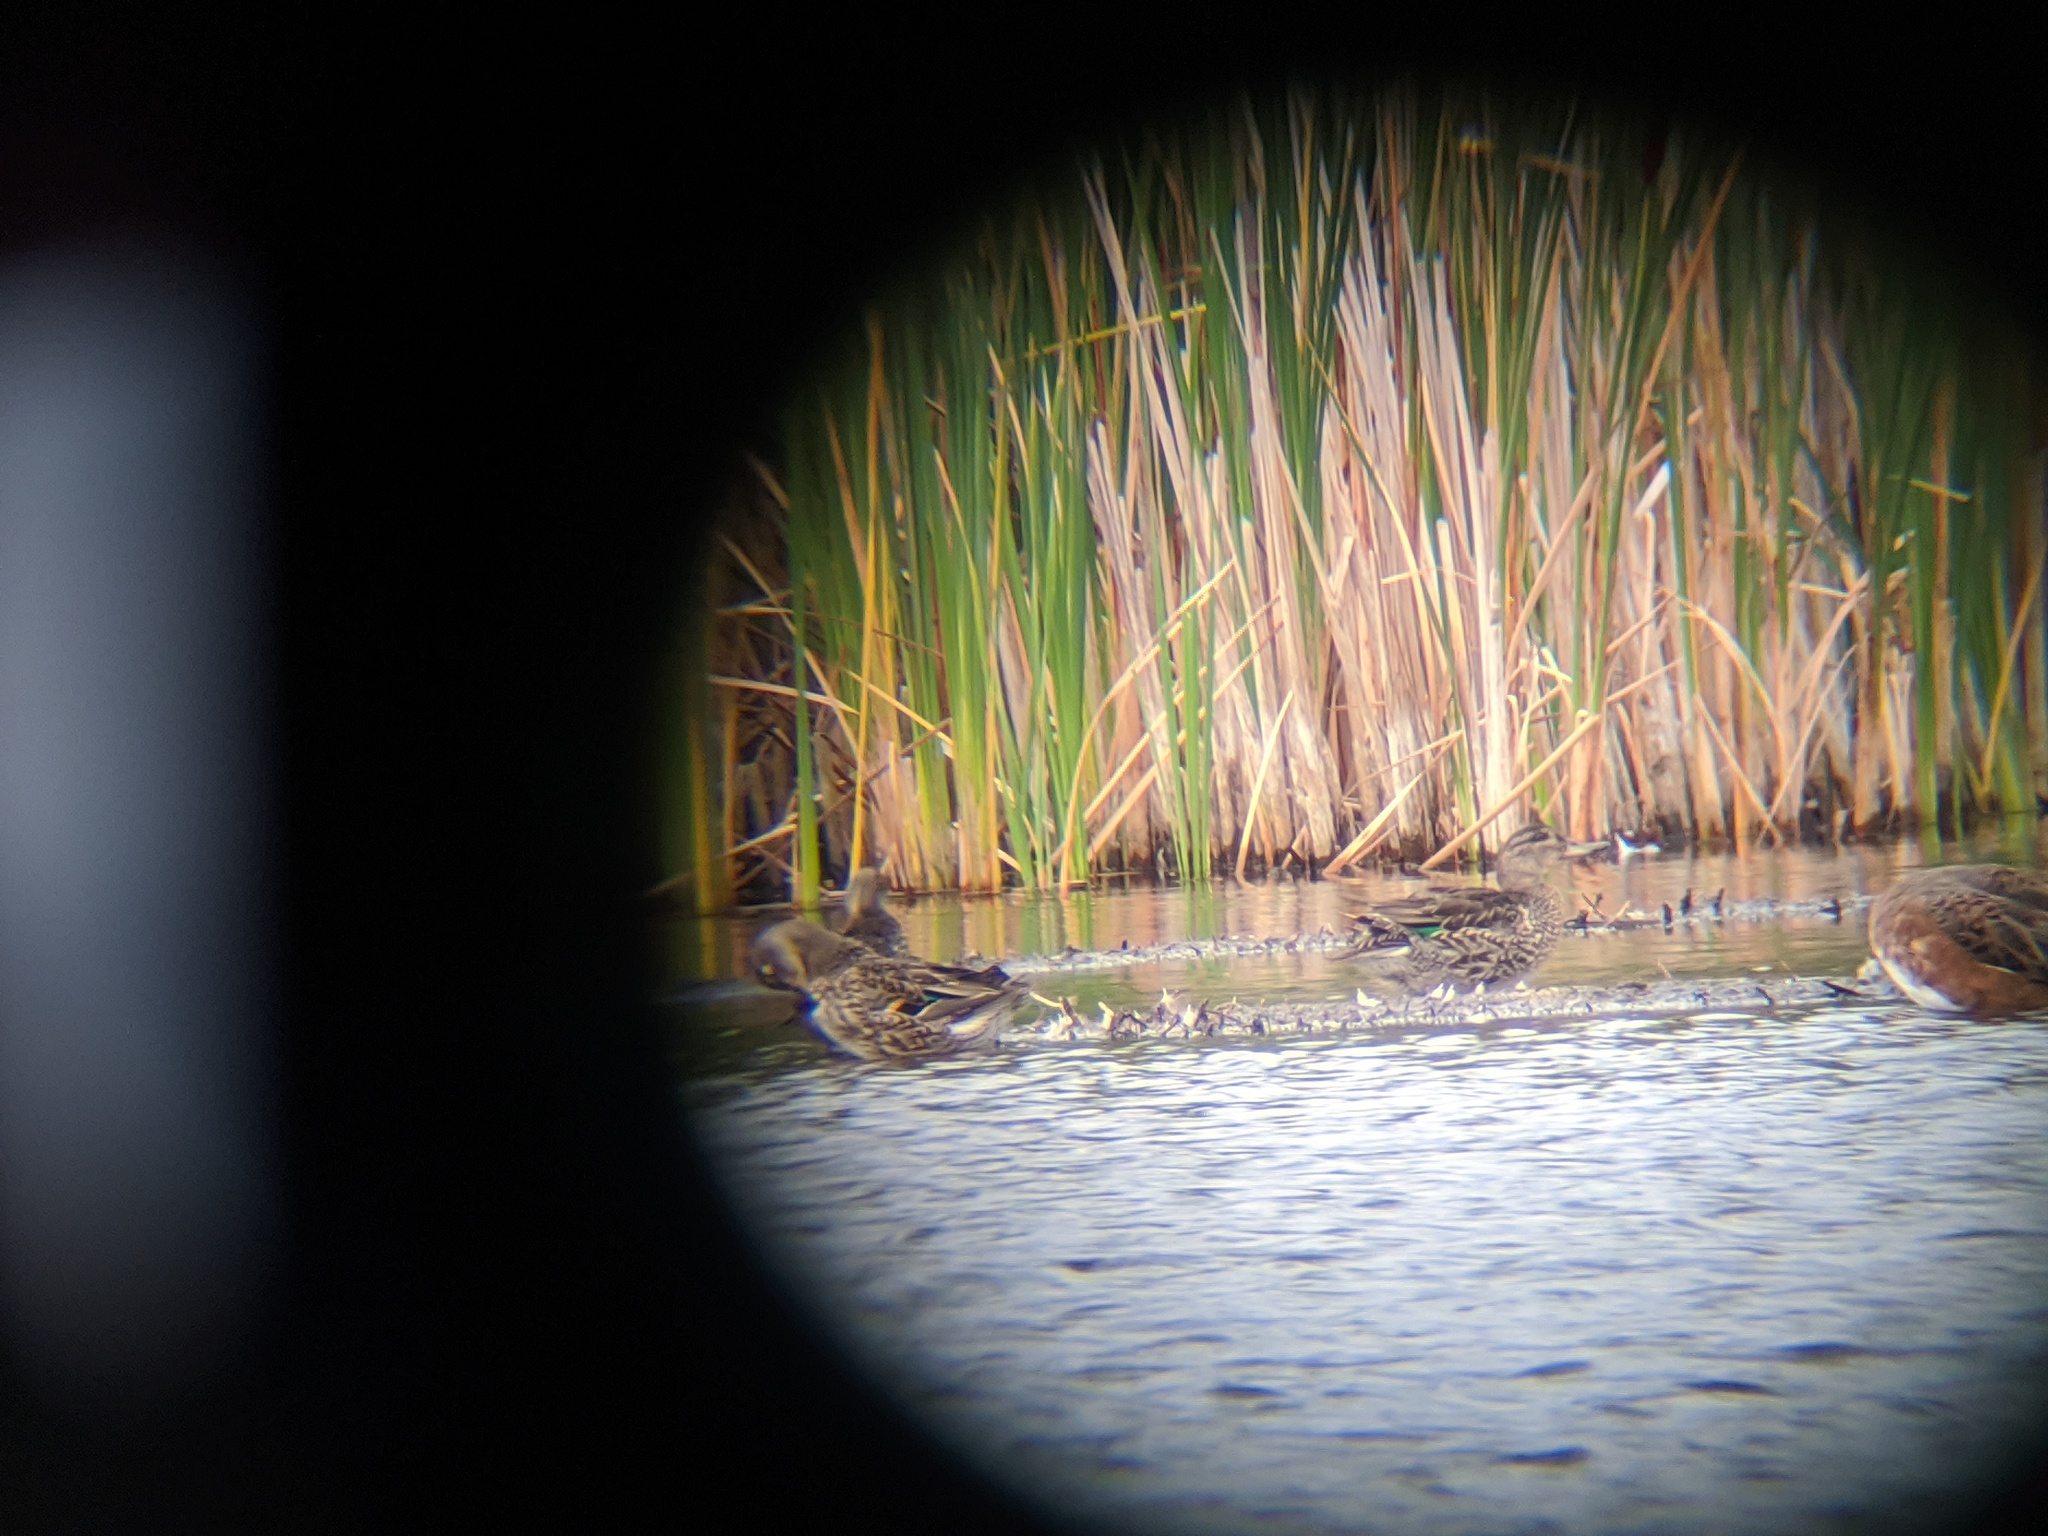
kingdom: Animalia
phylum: Chordata
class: Aves
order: Anseriformes
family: Anatidae
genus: Anas
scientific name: Anas crecca
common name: Eurasian teal
